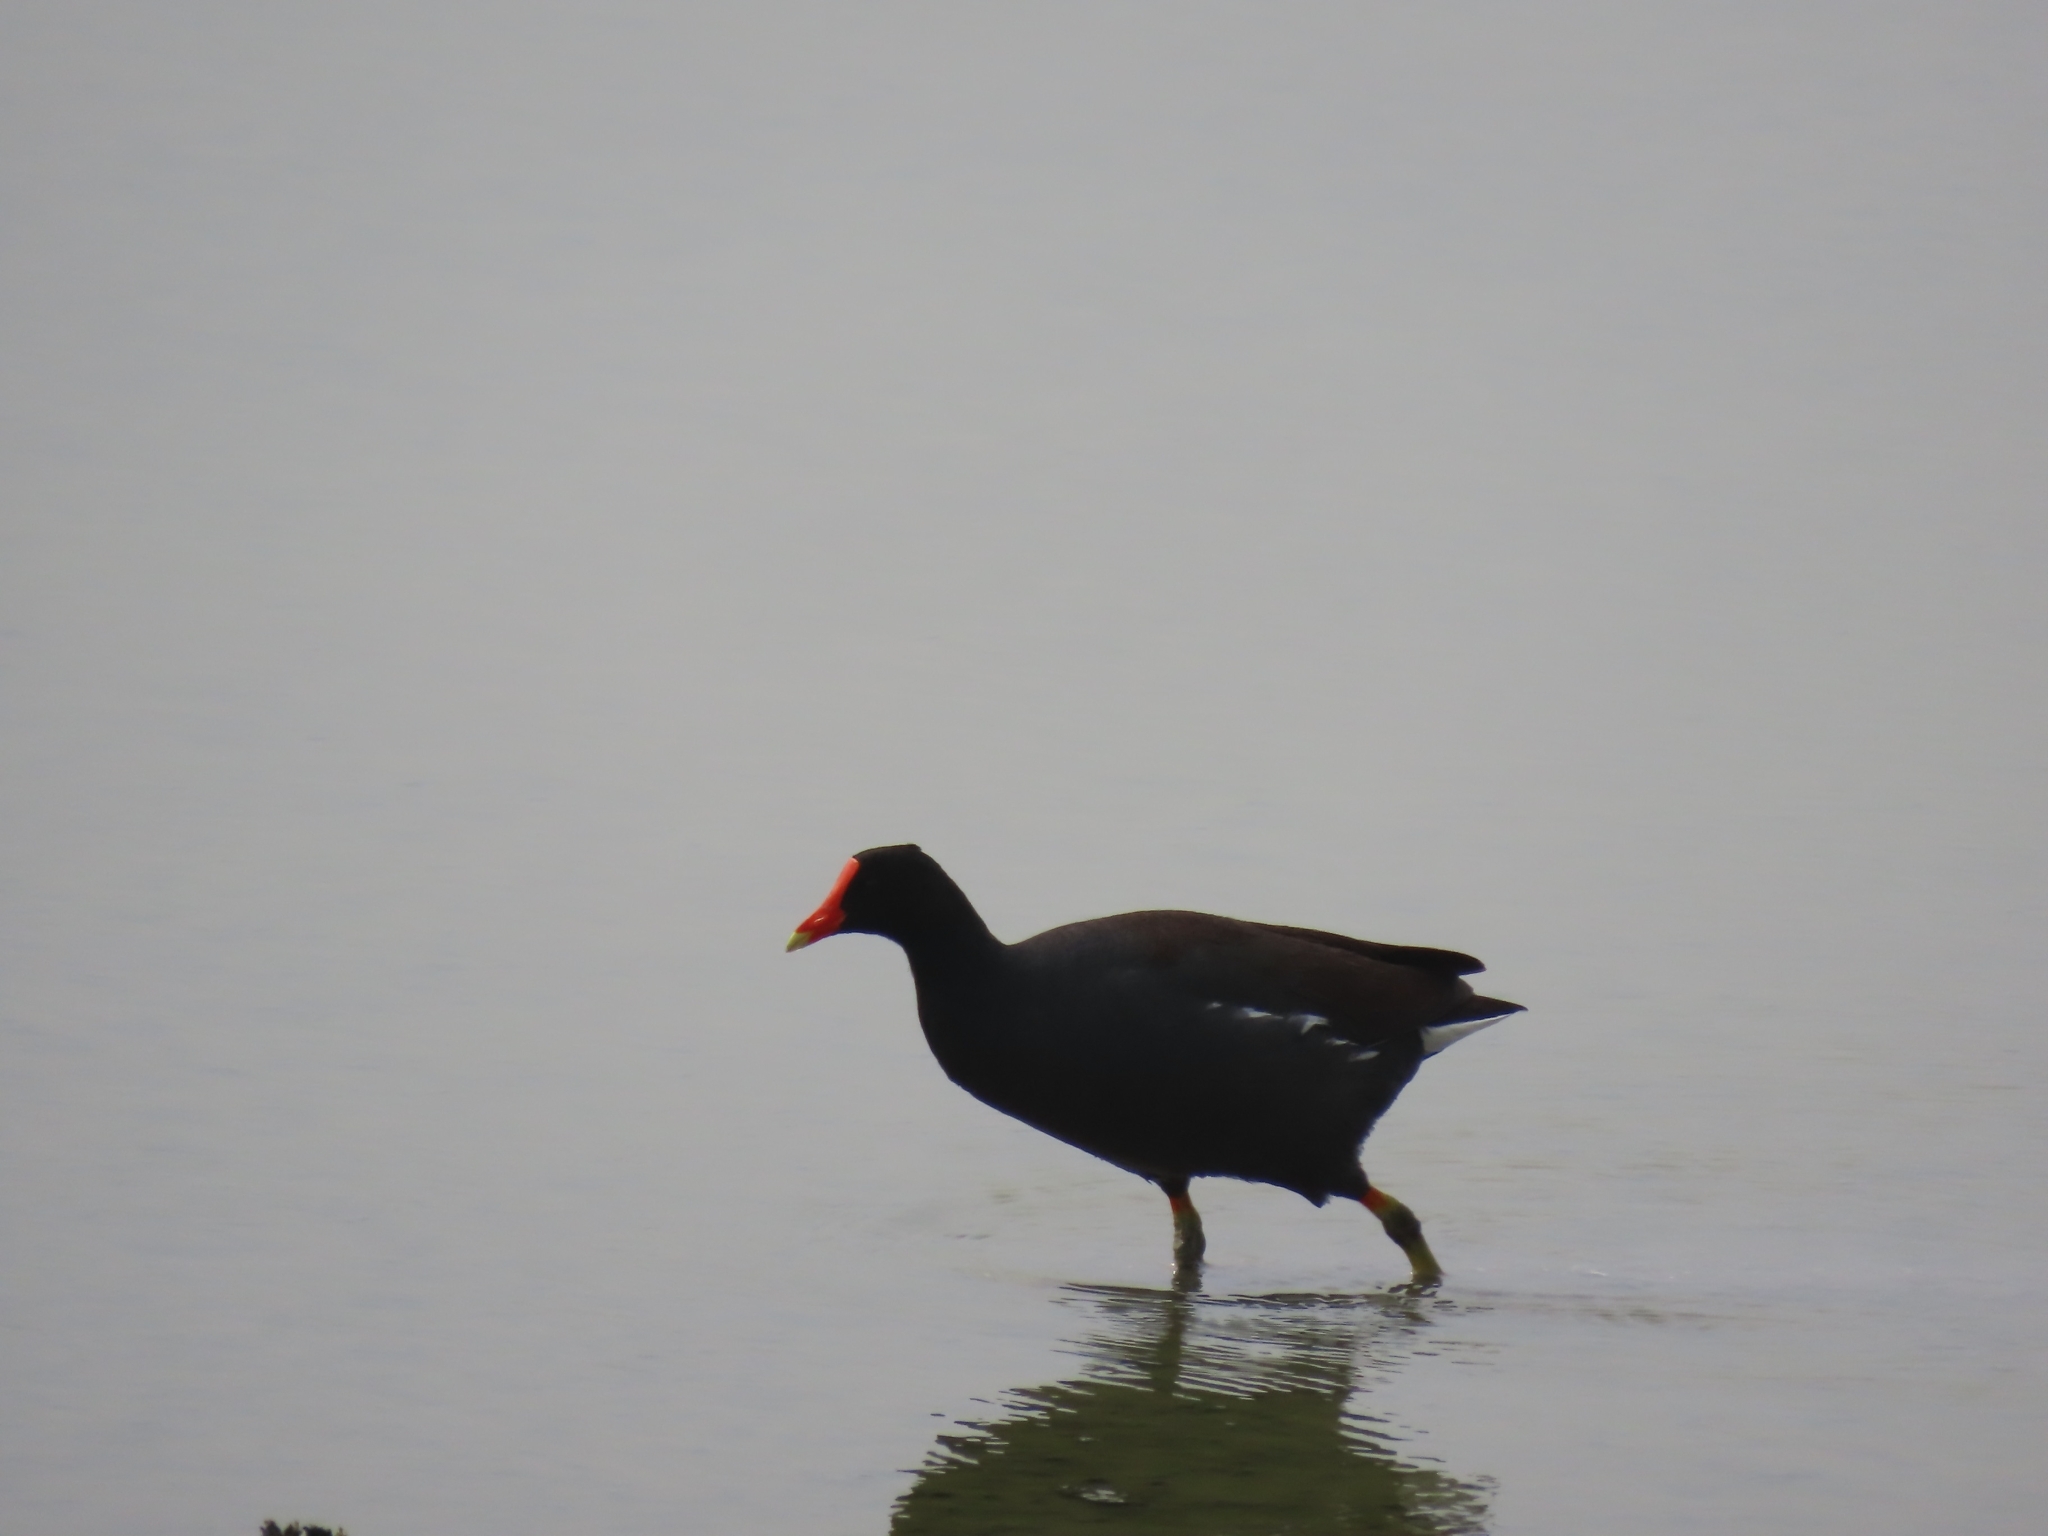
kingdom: Animalia
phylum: Chordata
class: Aves
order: Gruiformes
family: Rallidae
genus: Gallinula
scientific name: Gallinula chloropus
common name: Common moorhen
